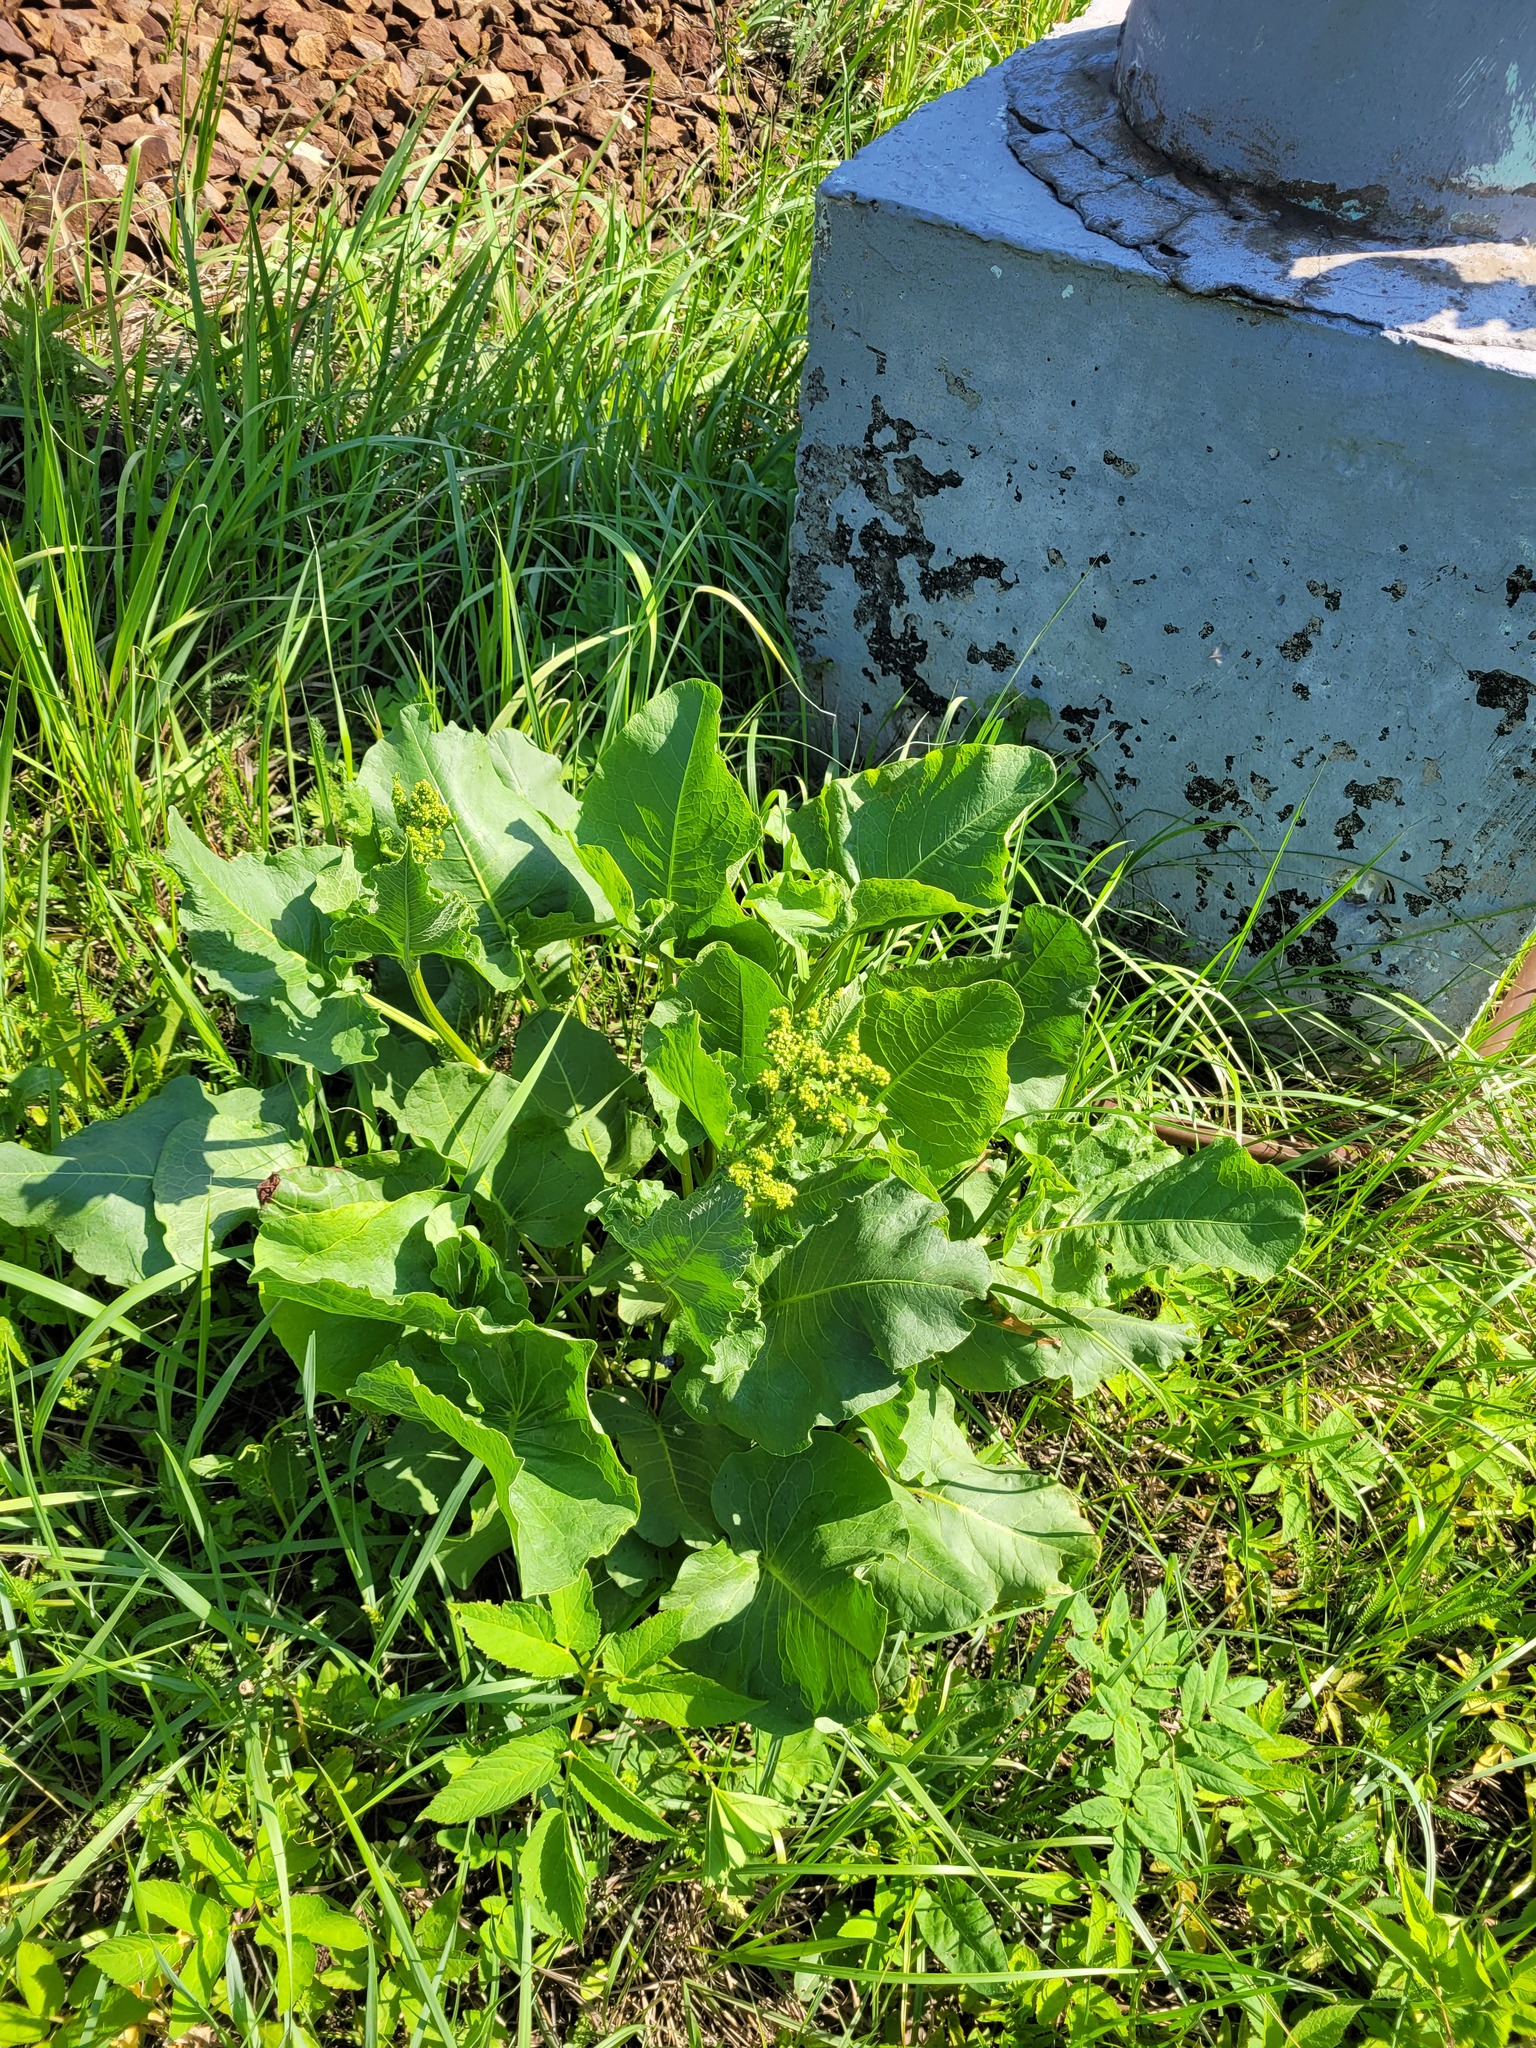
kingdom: Plantae
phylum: Tracheophyta
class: Magnoliopsida
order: Caryophyllales
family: Polygonaceae
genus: Rumex
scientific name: Rumex confertus
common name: Russian dock
